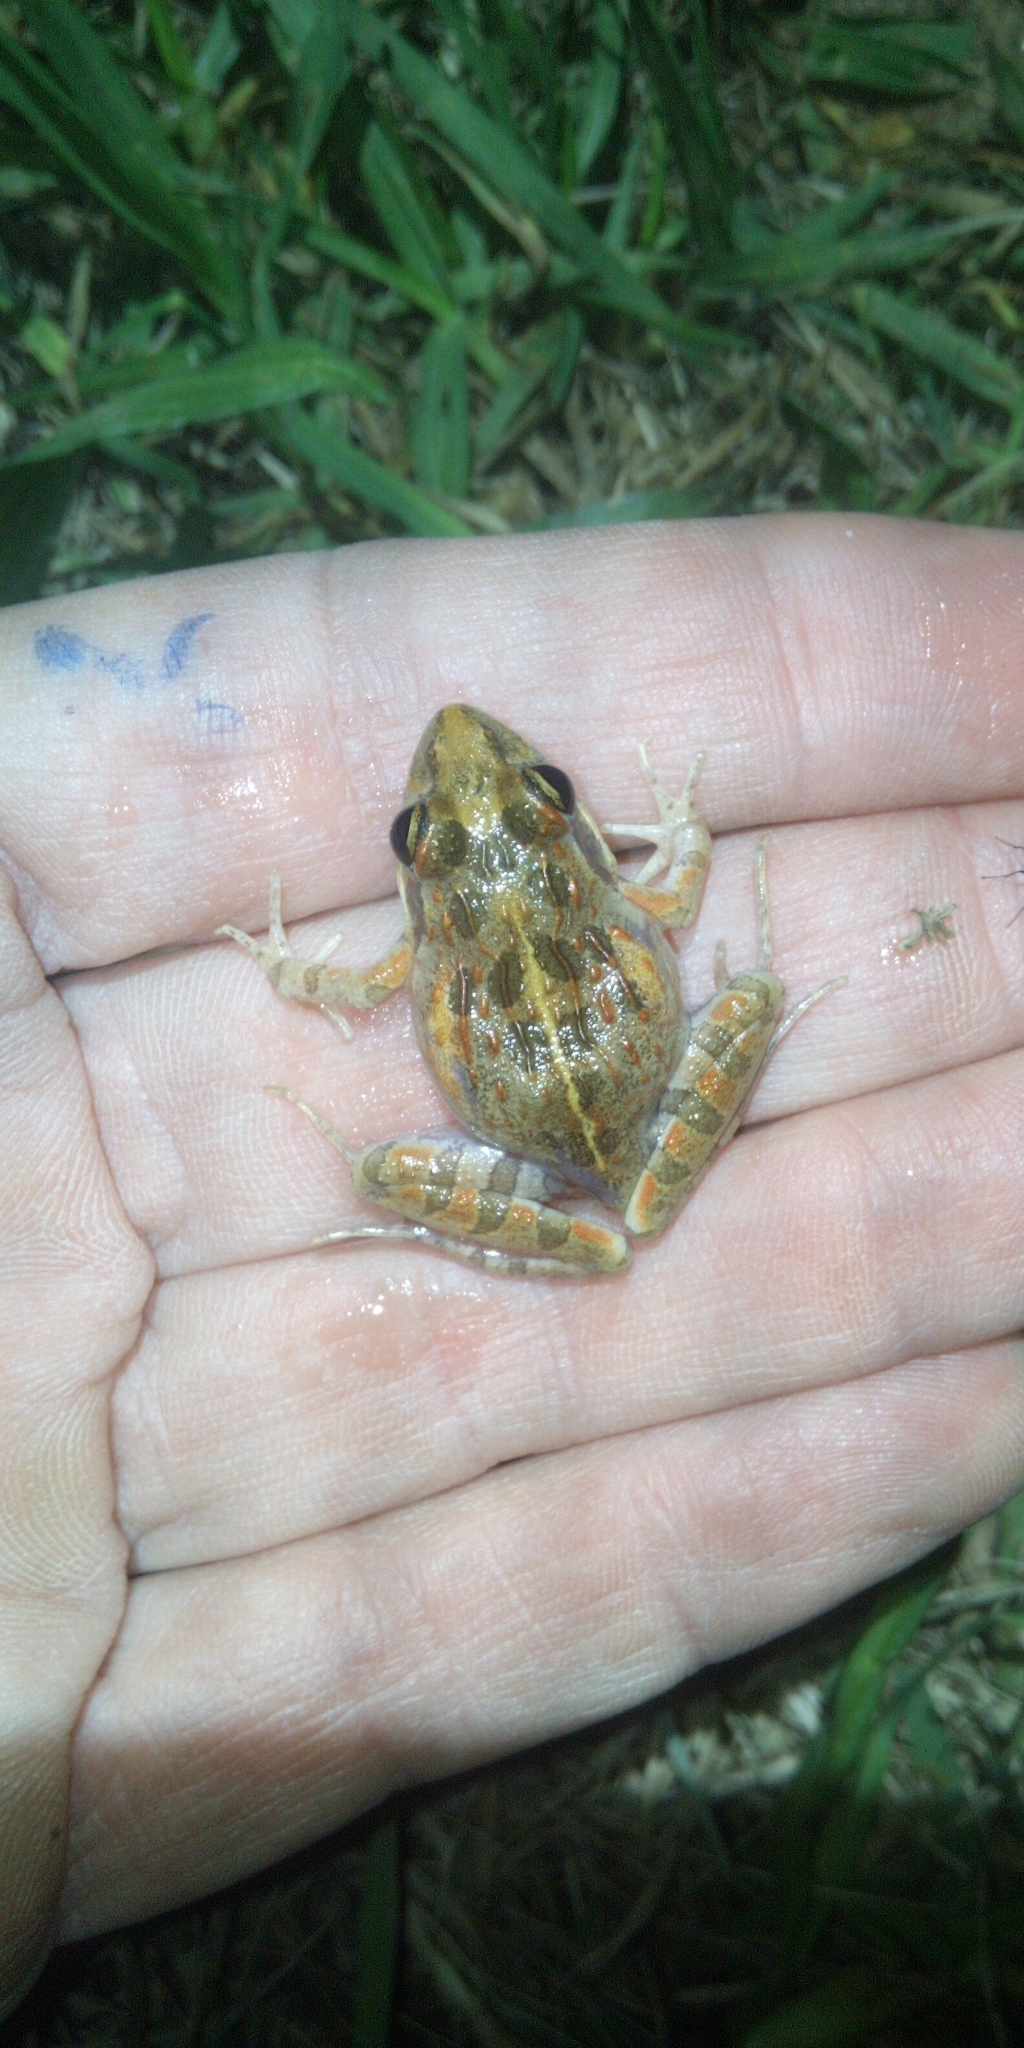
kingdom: Animalia
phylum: Chordata
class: Amphibia
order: Anura
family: Pyxicephalidae
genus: Strongylopus
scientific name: Strongylopus grayii
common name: Gray's stream frog
